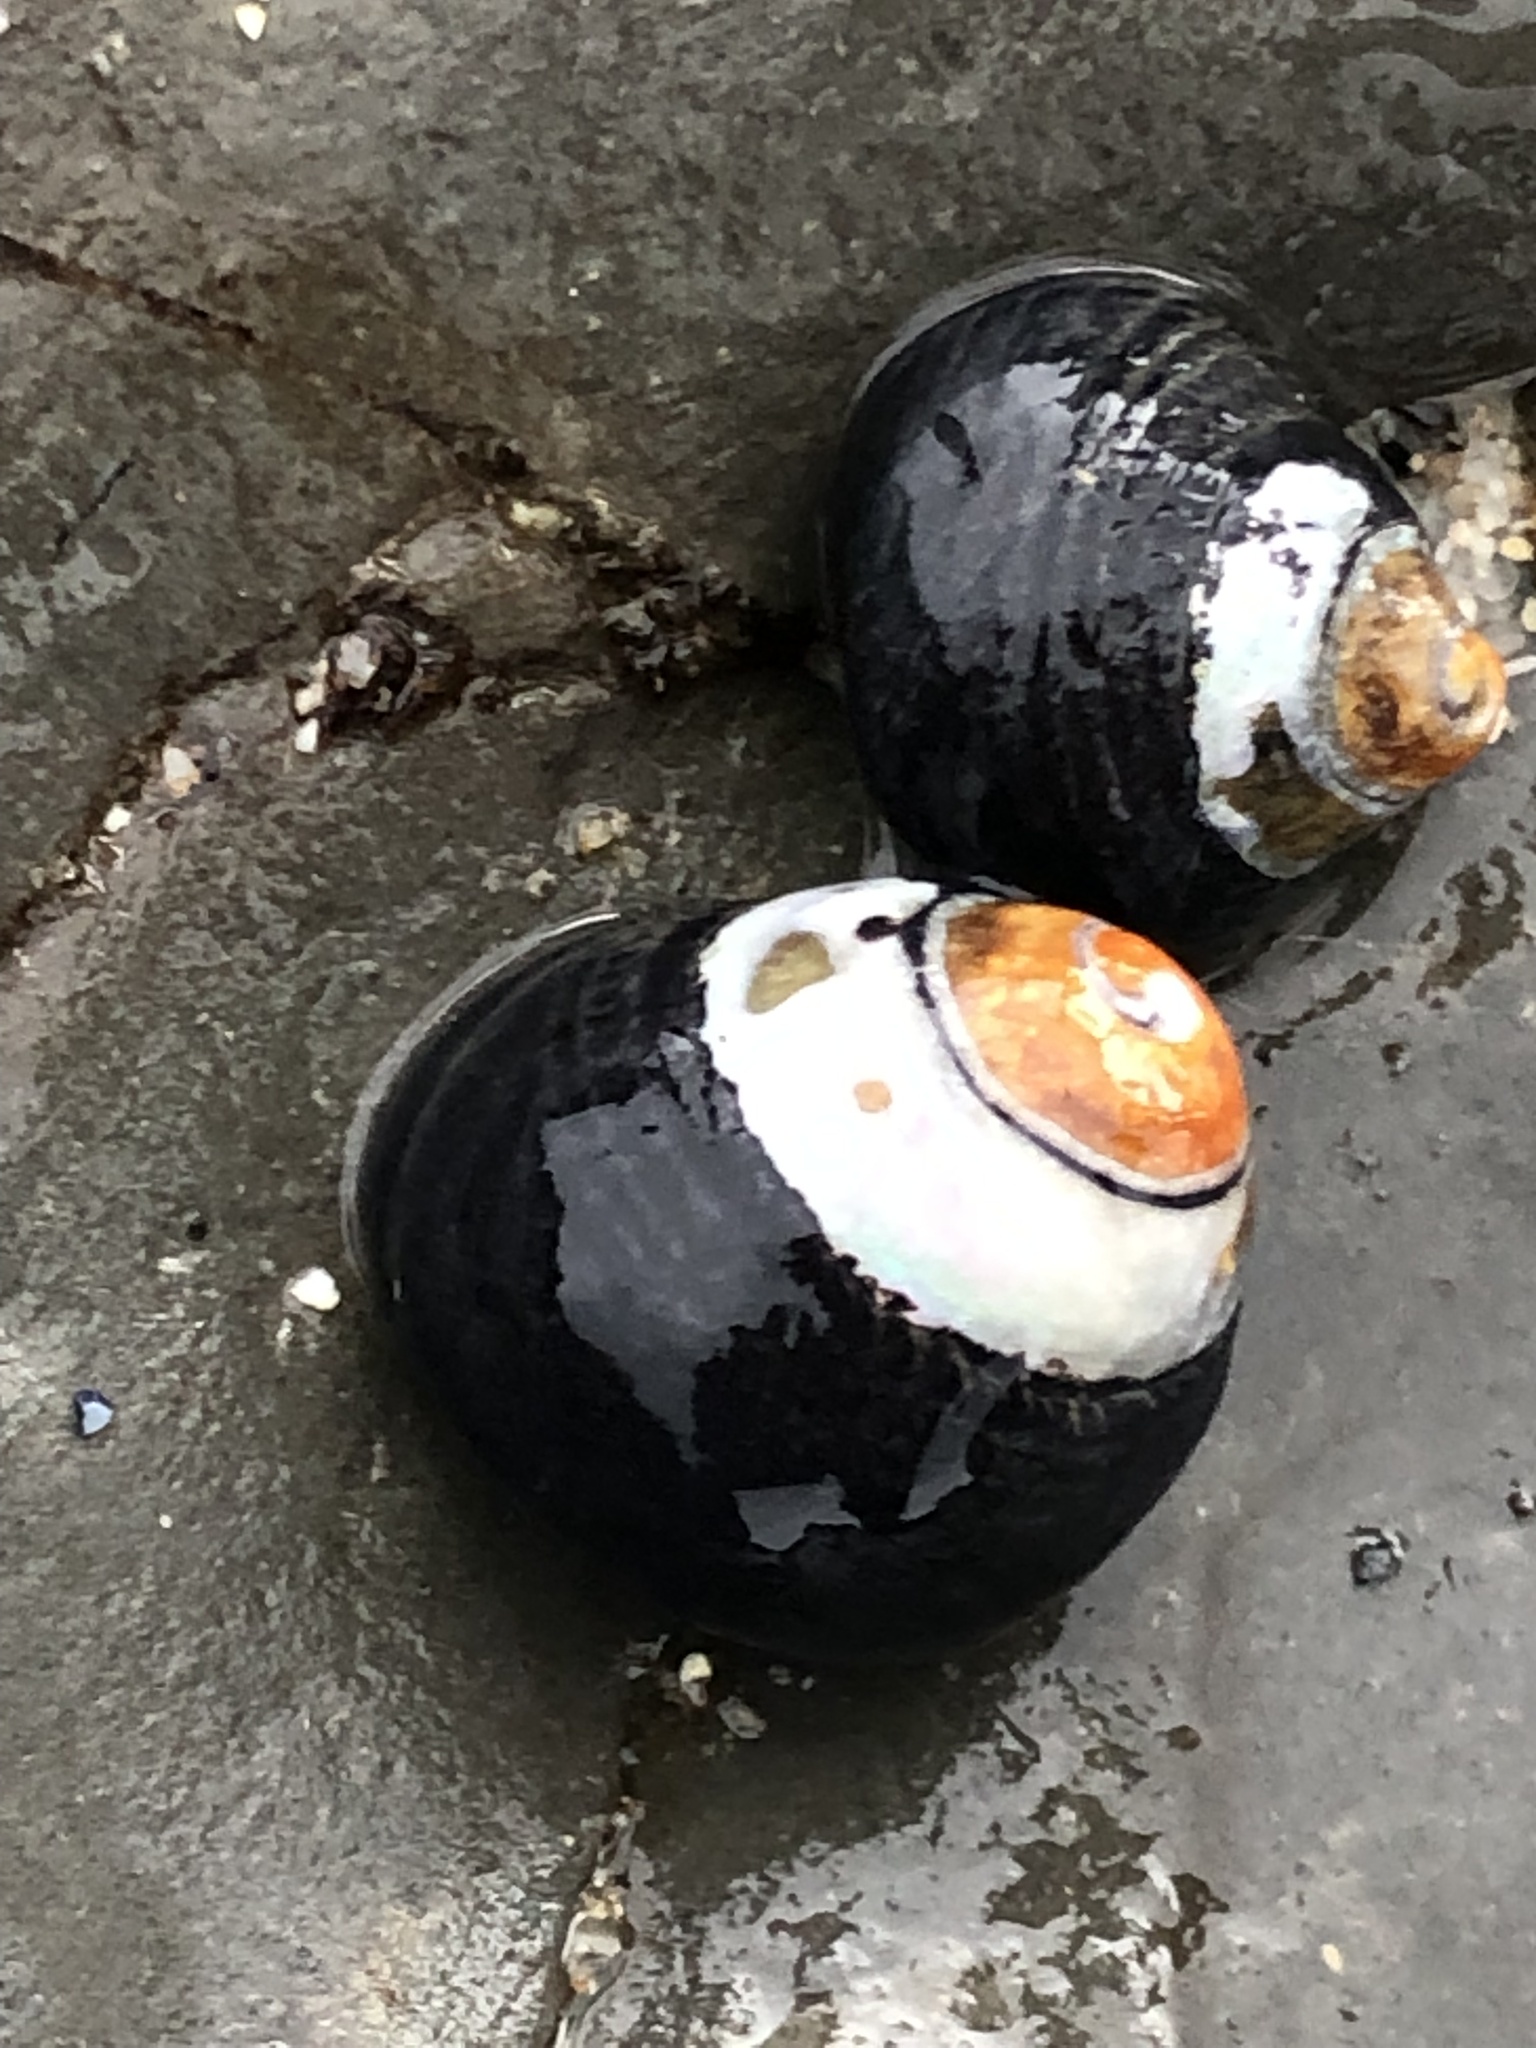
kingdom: Animalia
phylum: Mollusca
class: Gastropoda
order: Trochida
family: Tegulidae
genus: Tegula
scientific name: Tegula funebralis
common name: Black tegula
